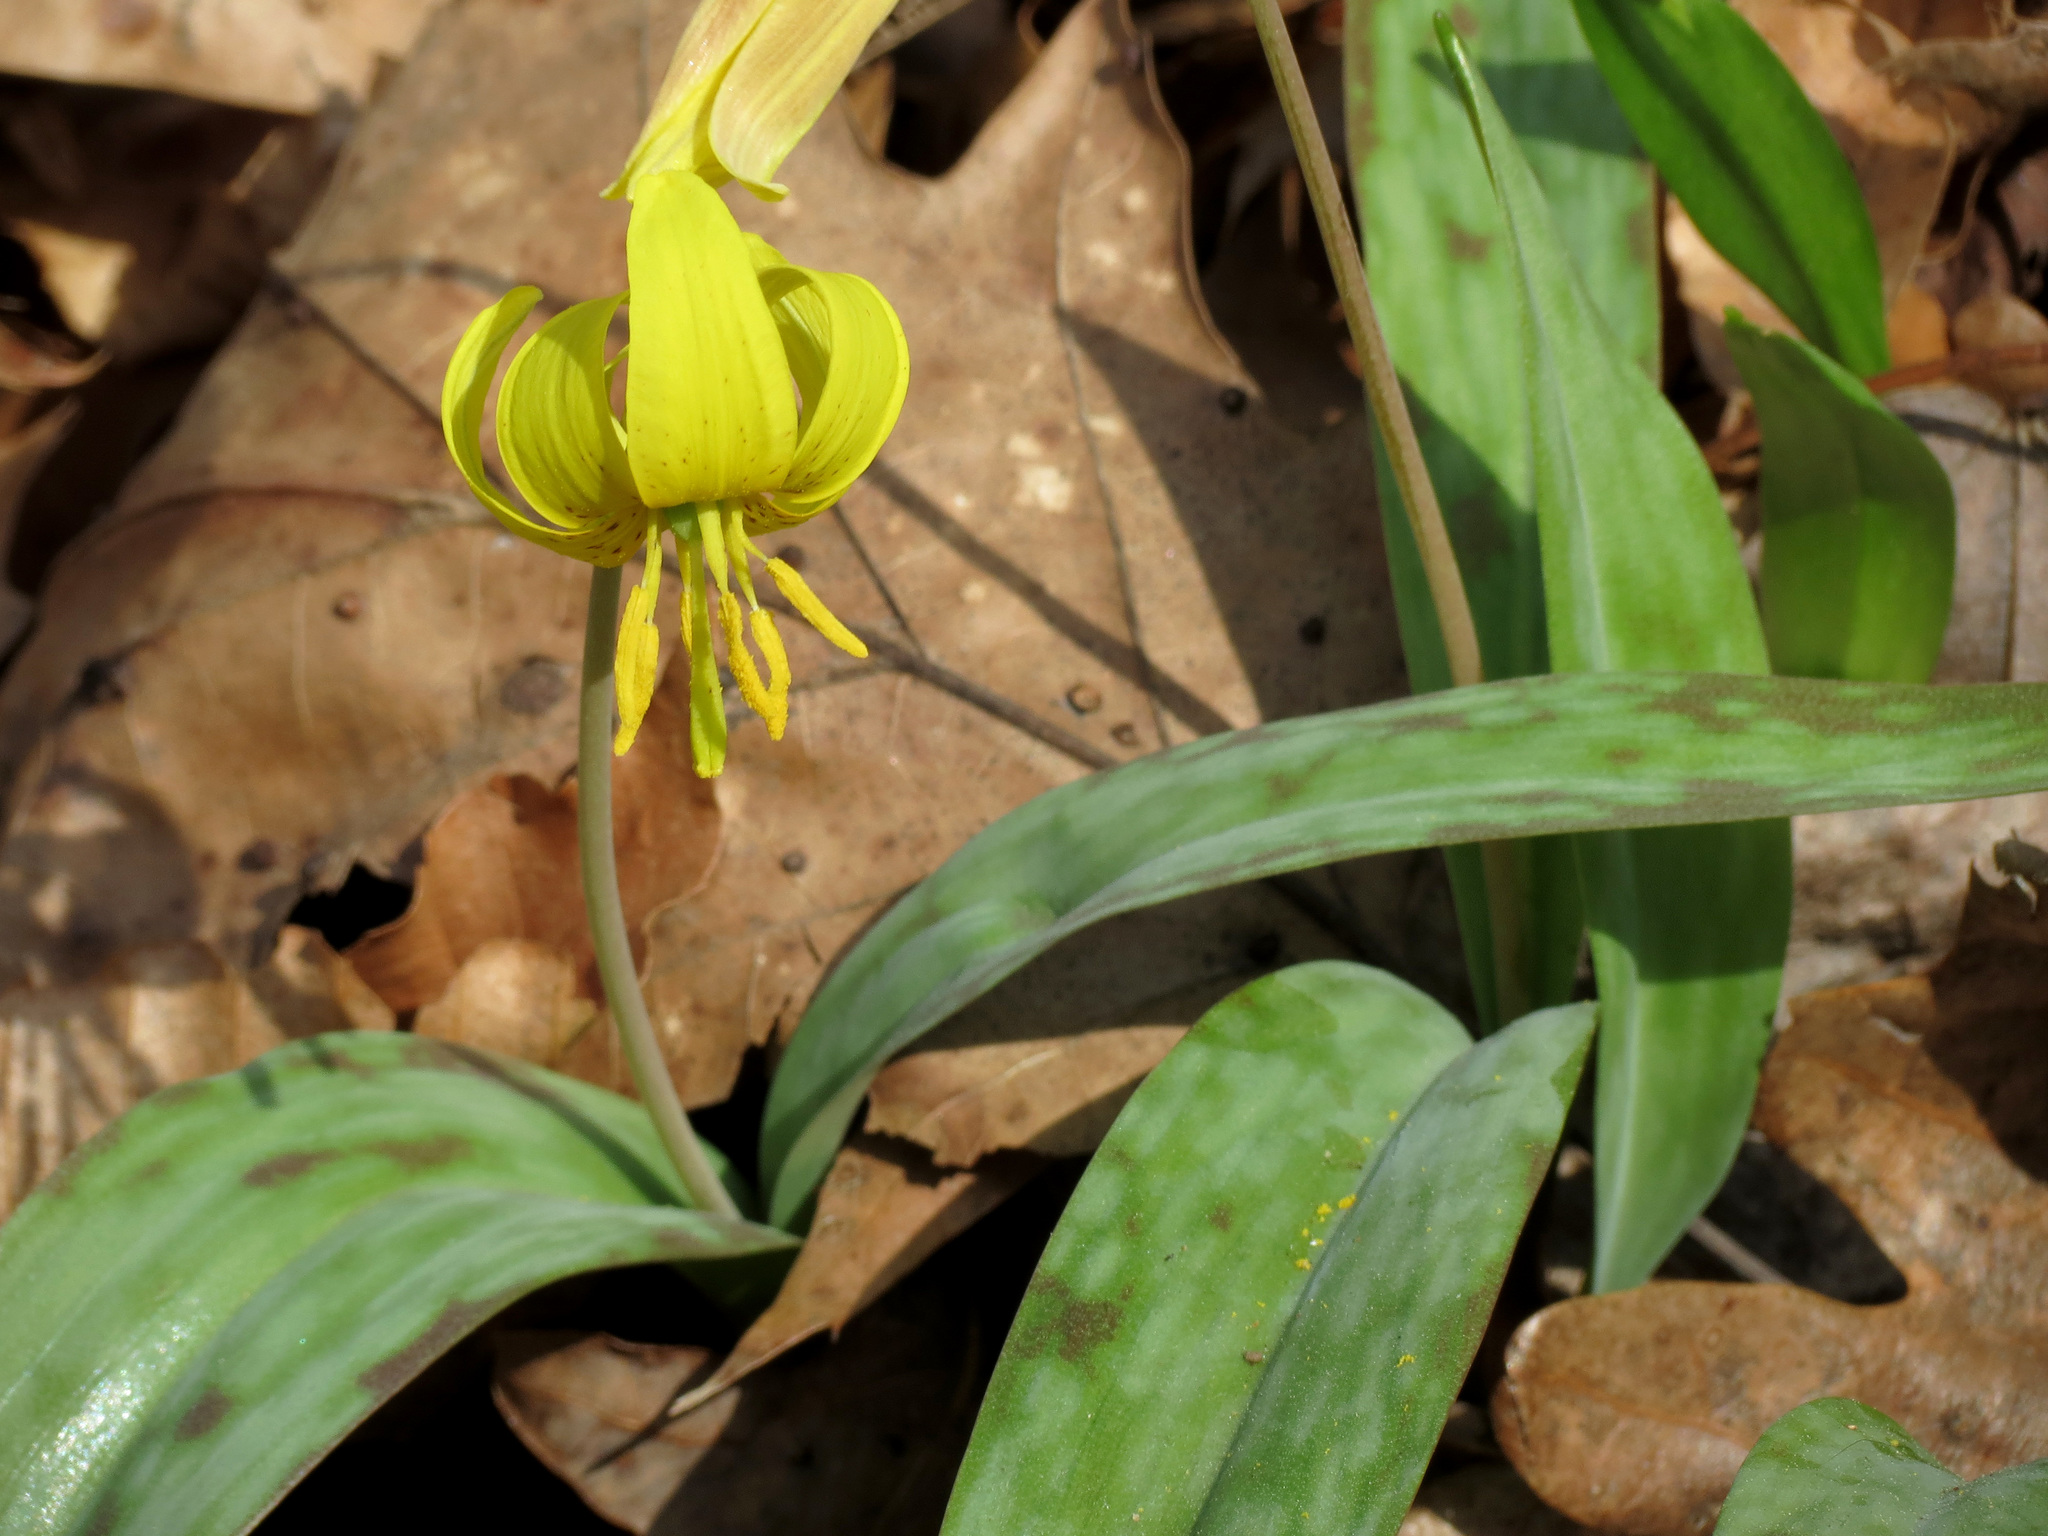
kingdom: Plantae
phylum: Tracheophyta
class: Liliopsida
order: Liliales
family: Liliaceae
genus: Erythronium
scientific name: Erythronium americanum
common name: Yellow adder's-tongue
